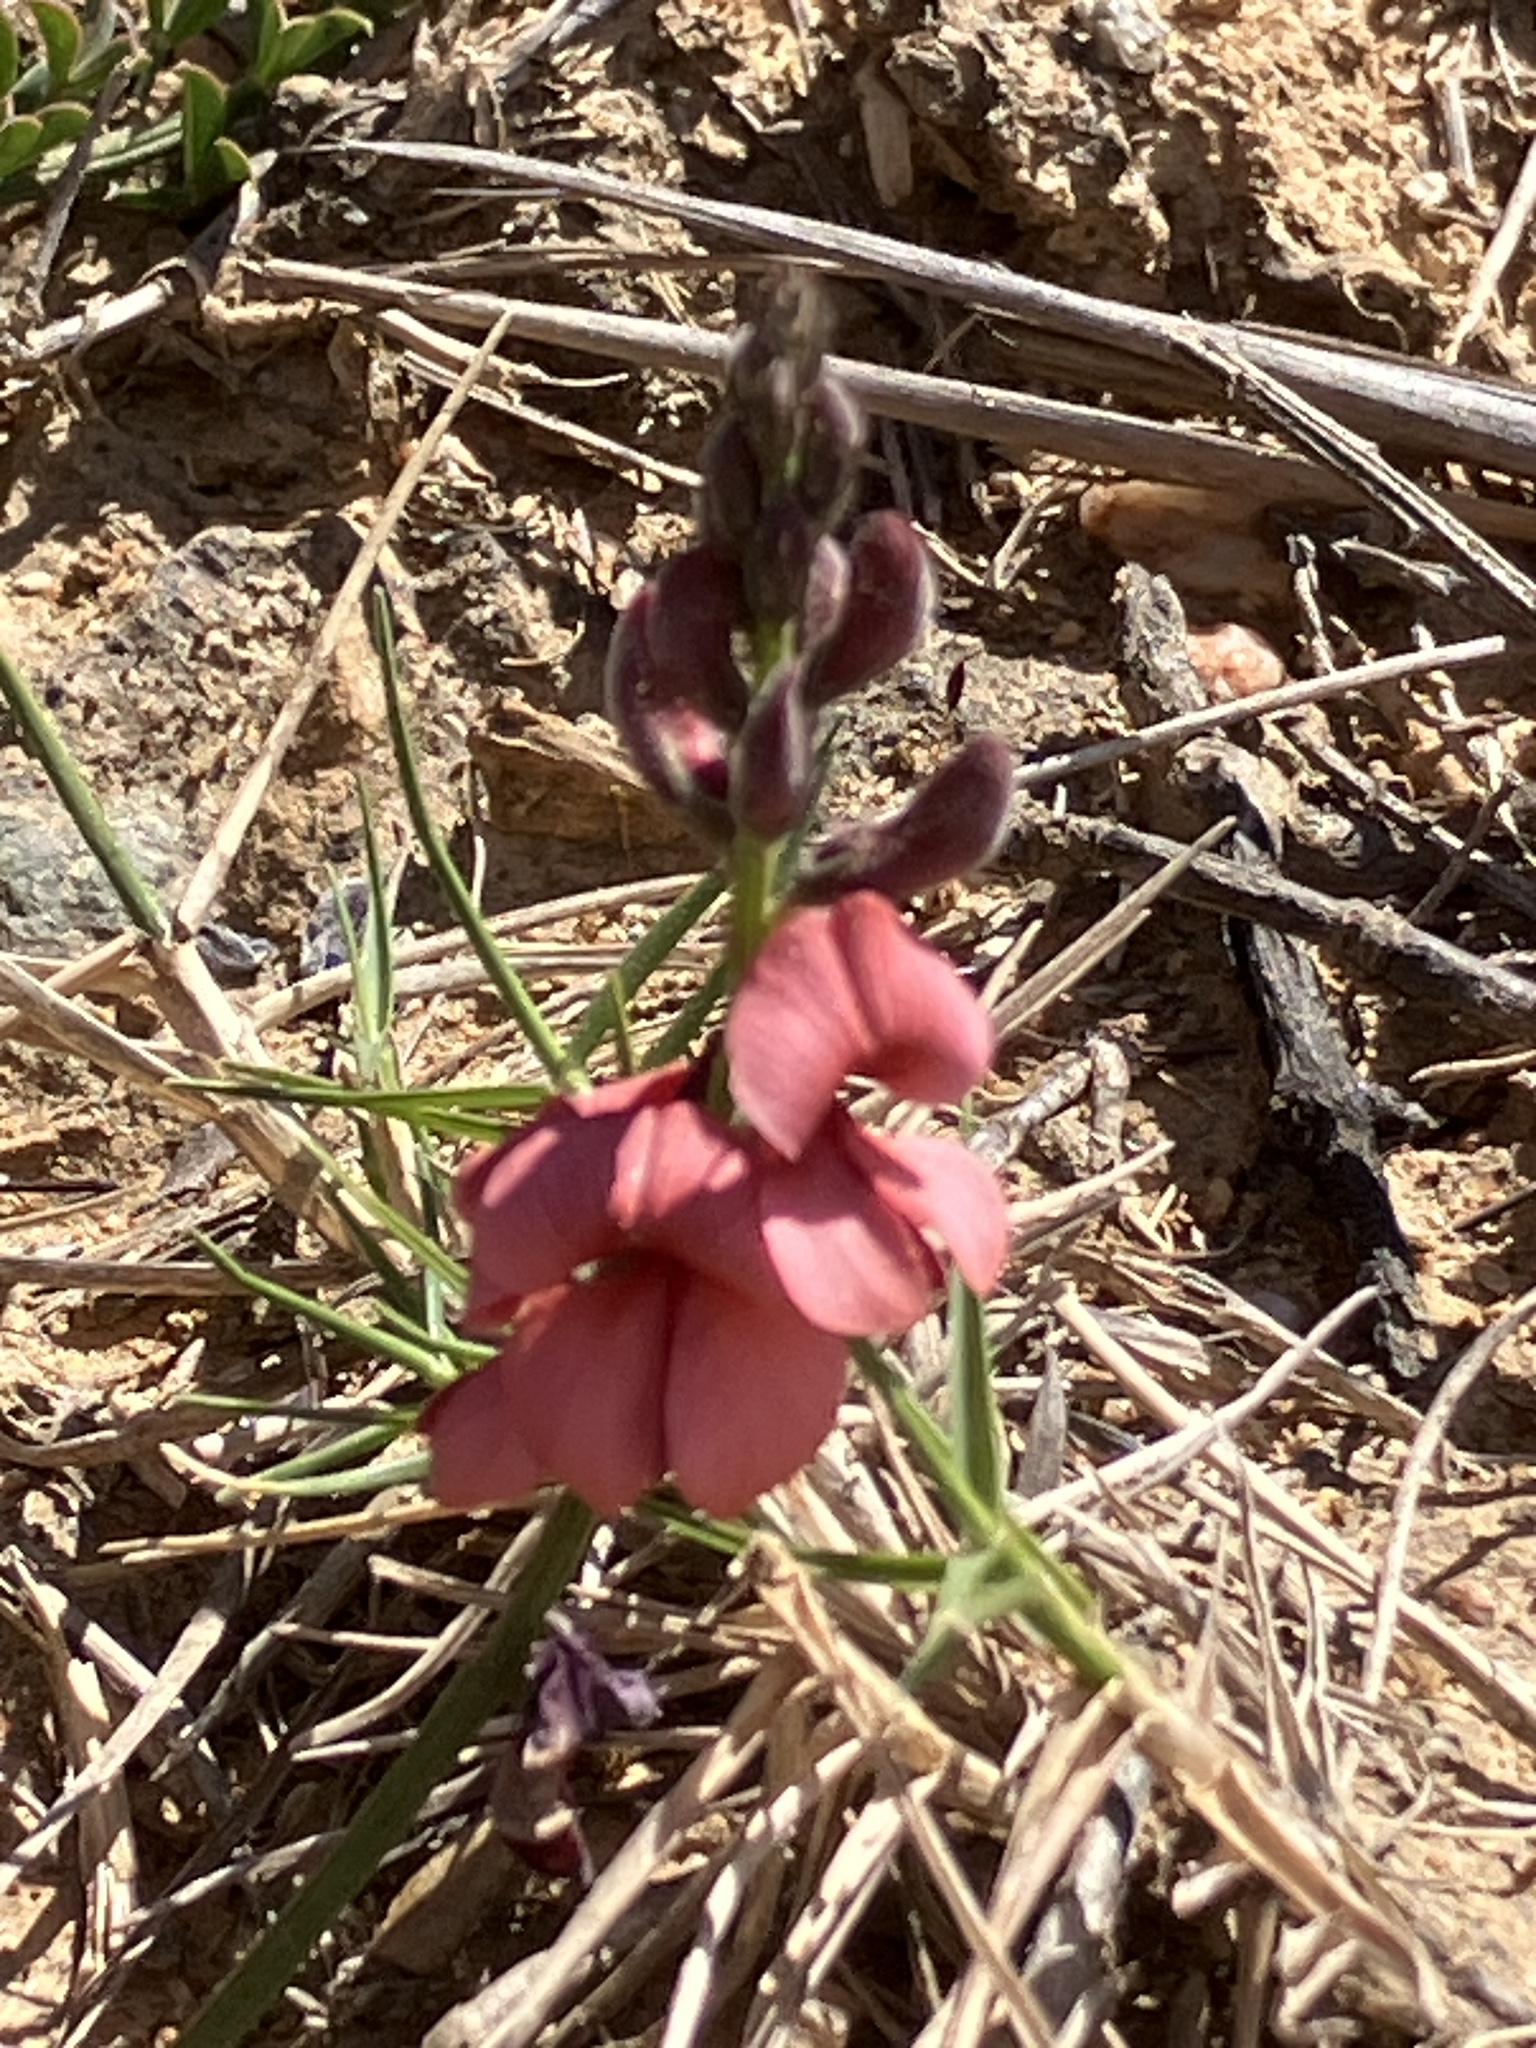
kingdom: Plantae
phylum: Tracheophyta
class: Magnoliopsida
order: Fabales
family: Fabaceae
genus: Indigofera
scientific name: Indigofera heterophylla
